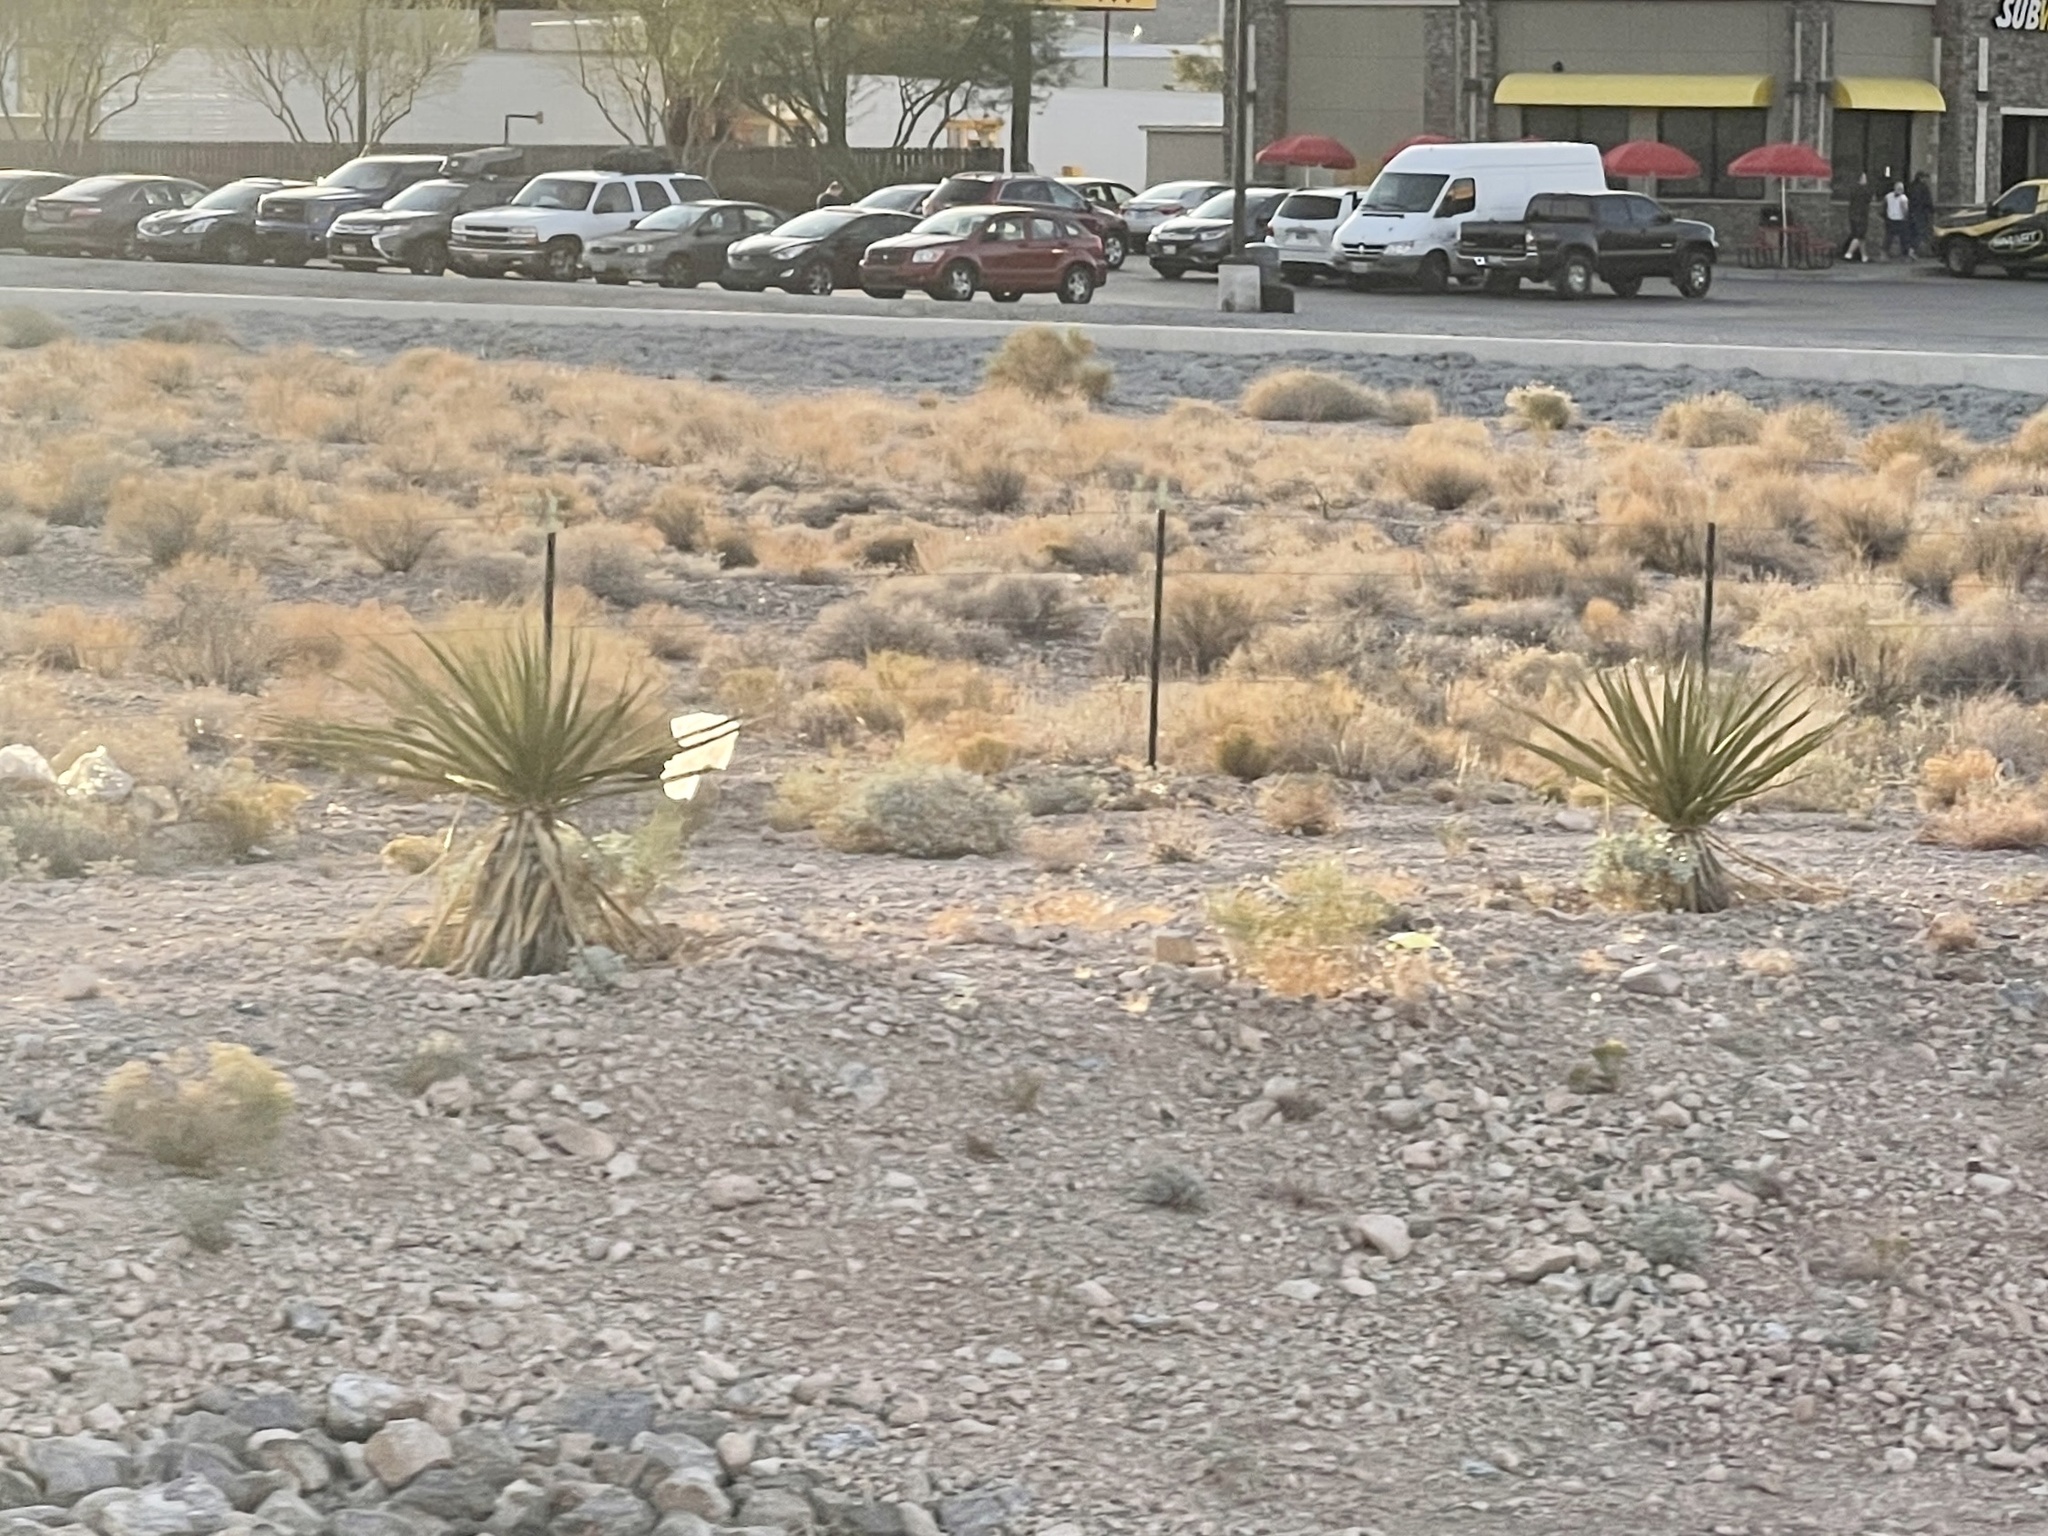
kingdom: Plantae
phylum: Tracheophyta
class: Liliopsida
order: Asparagales
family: Asparagaceae
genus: Yucca
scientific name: Yucca schidigera
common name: Mojave yucca
